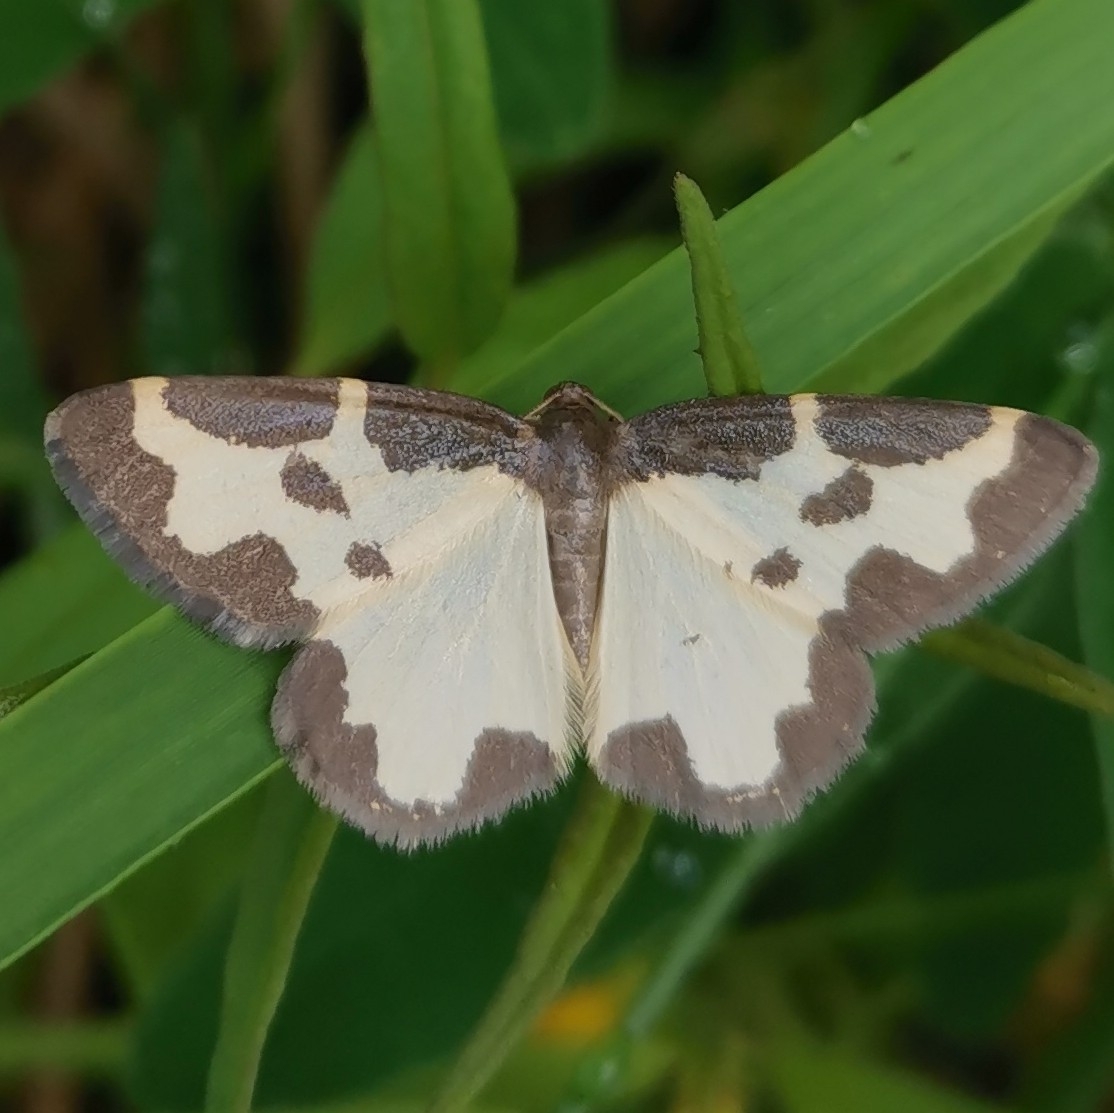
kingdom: Animalia
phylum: Arthropoda
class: Insecta
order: Lepidoptera
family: Geometridae
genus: Lomaspilis
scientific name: Lomaspilis marginata
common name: Clouded border
